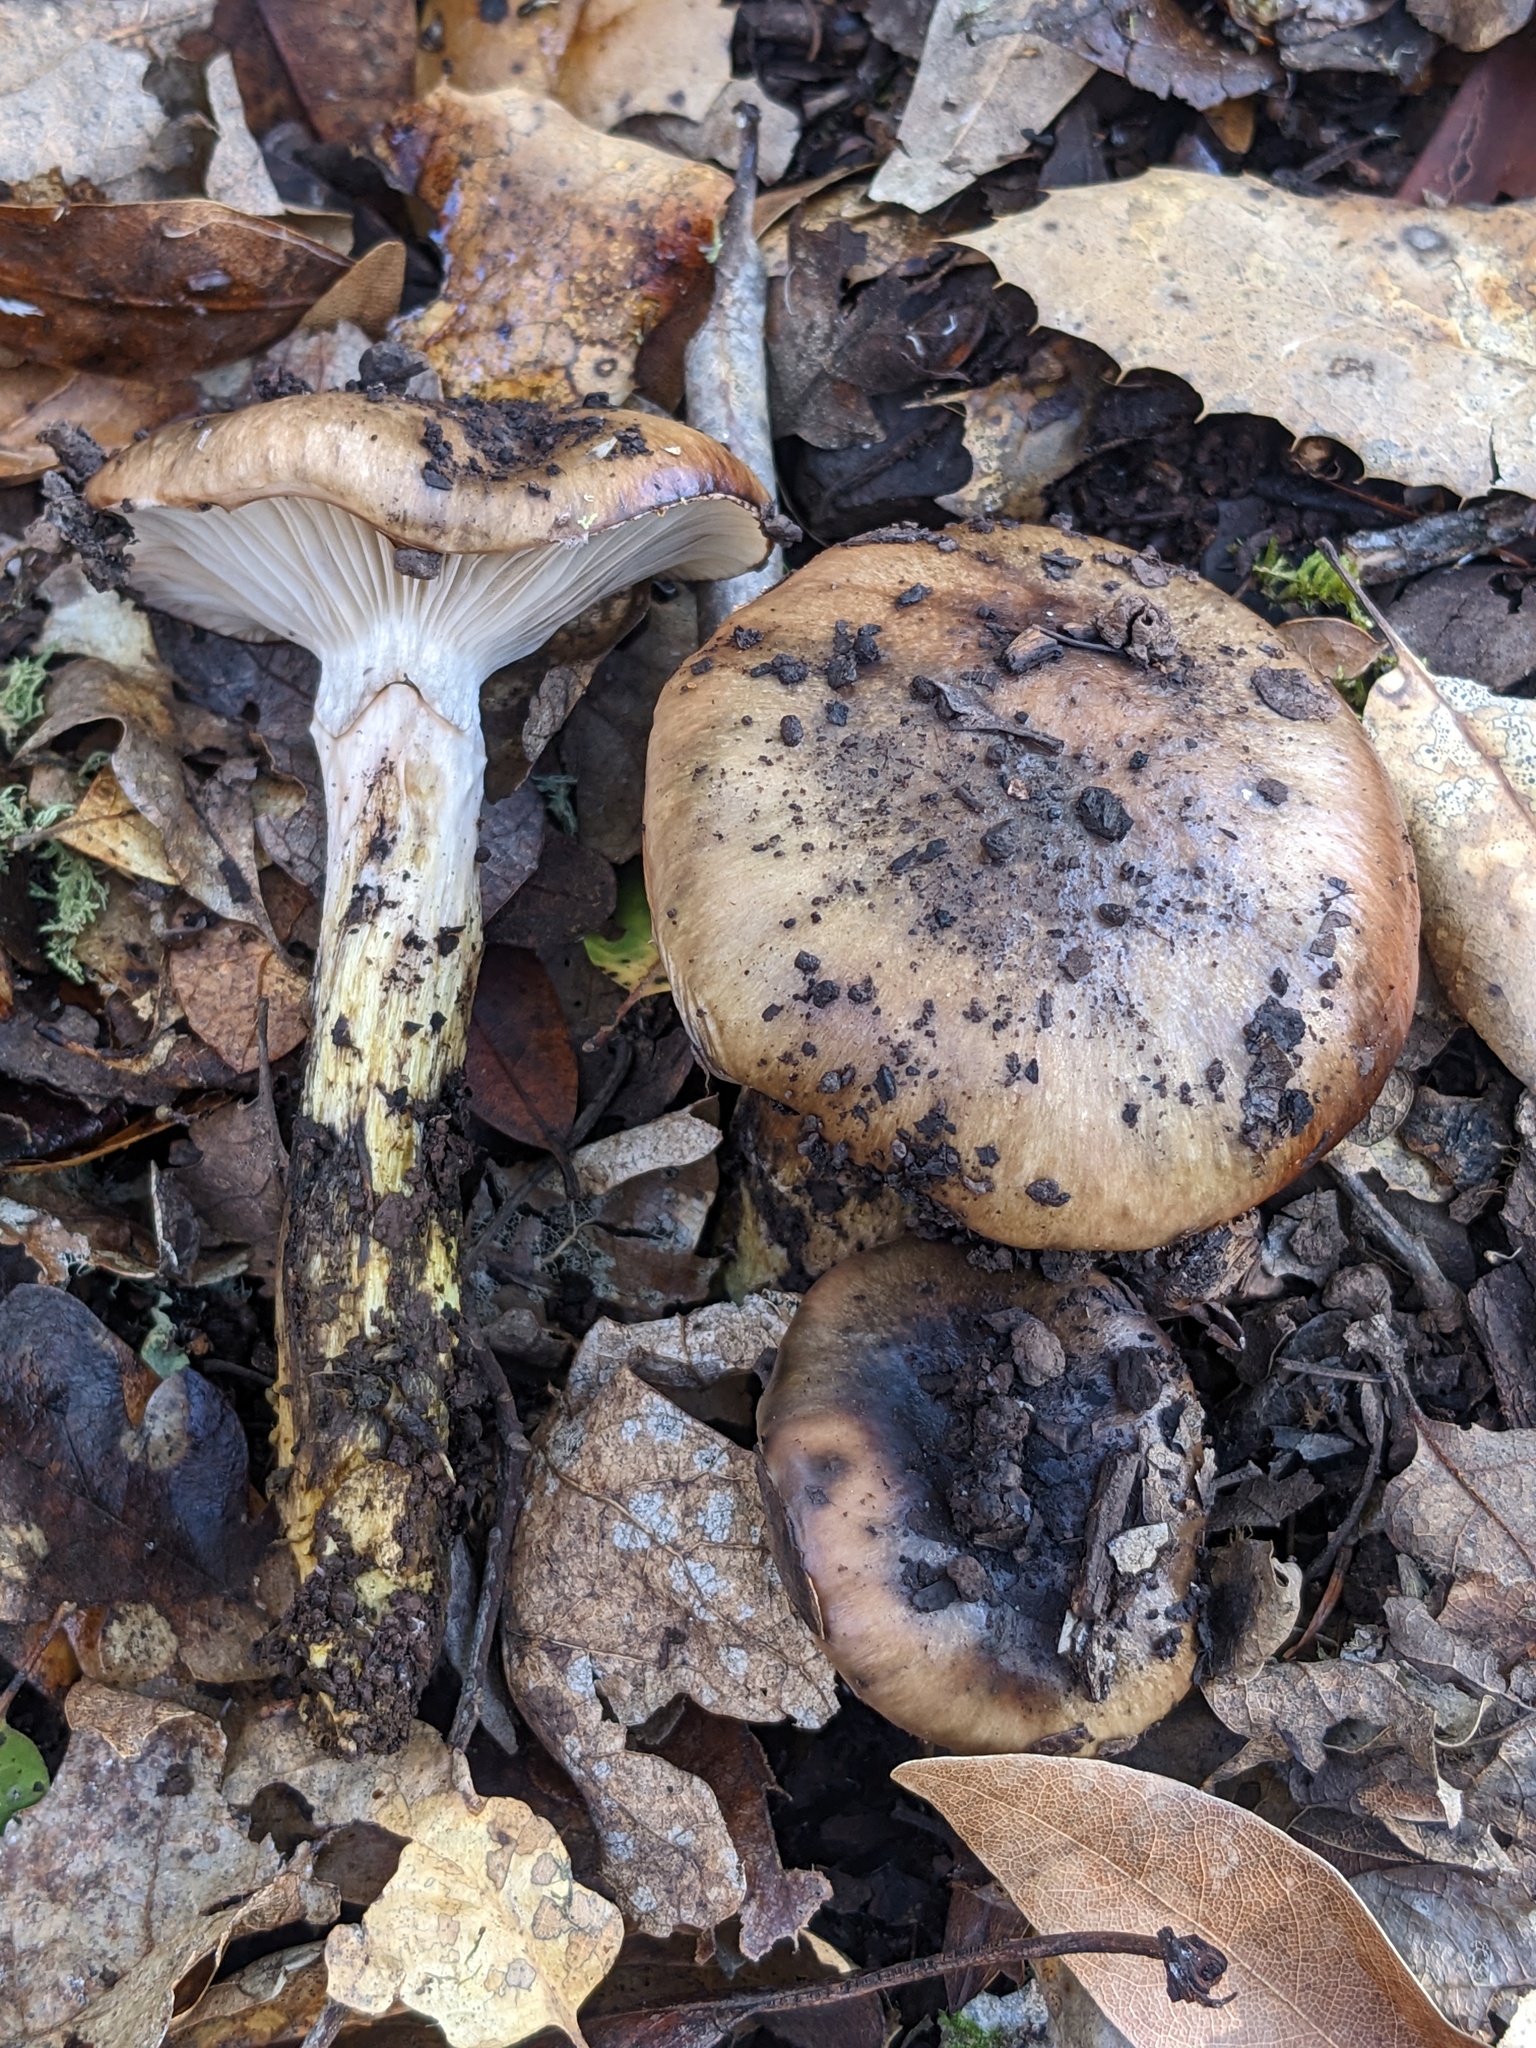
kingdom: Fungi
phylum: Basidiomycota
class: Agaricomycetes
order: Boletales
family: Gomphidiaceae
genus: Gomphidius
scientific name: Gomphidius oregonensis
